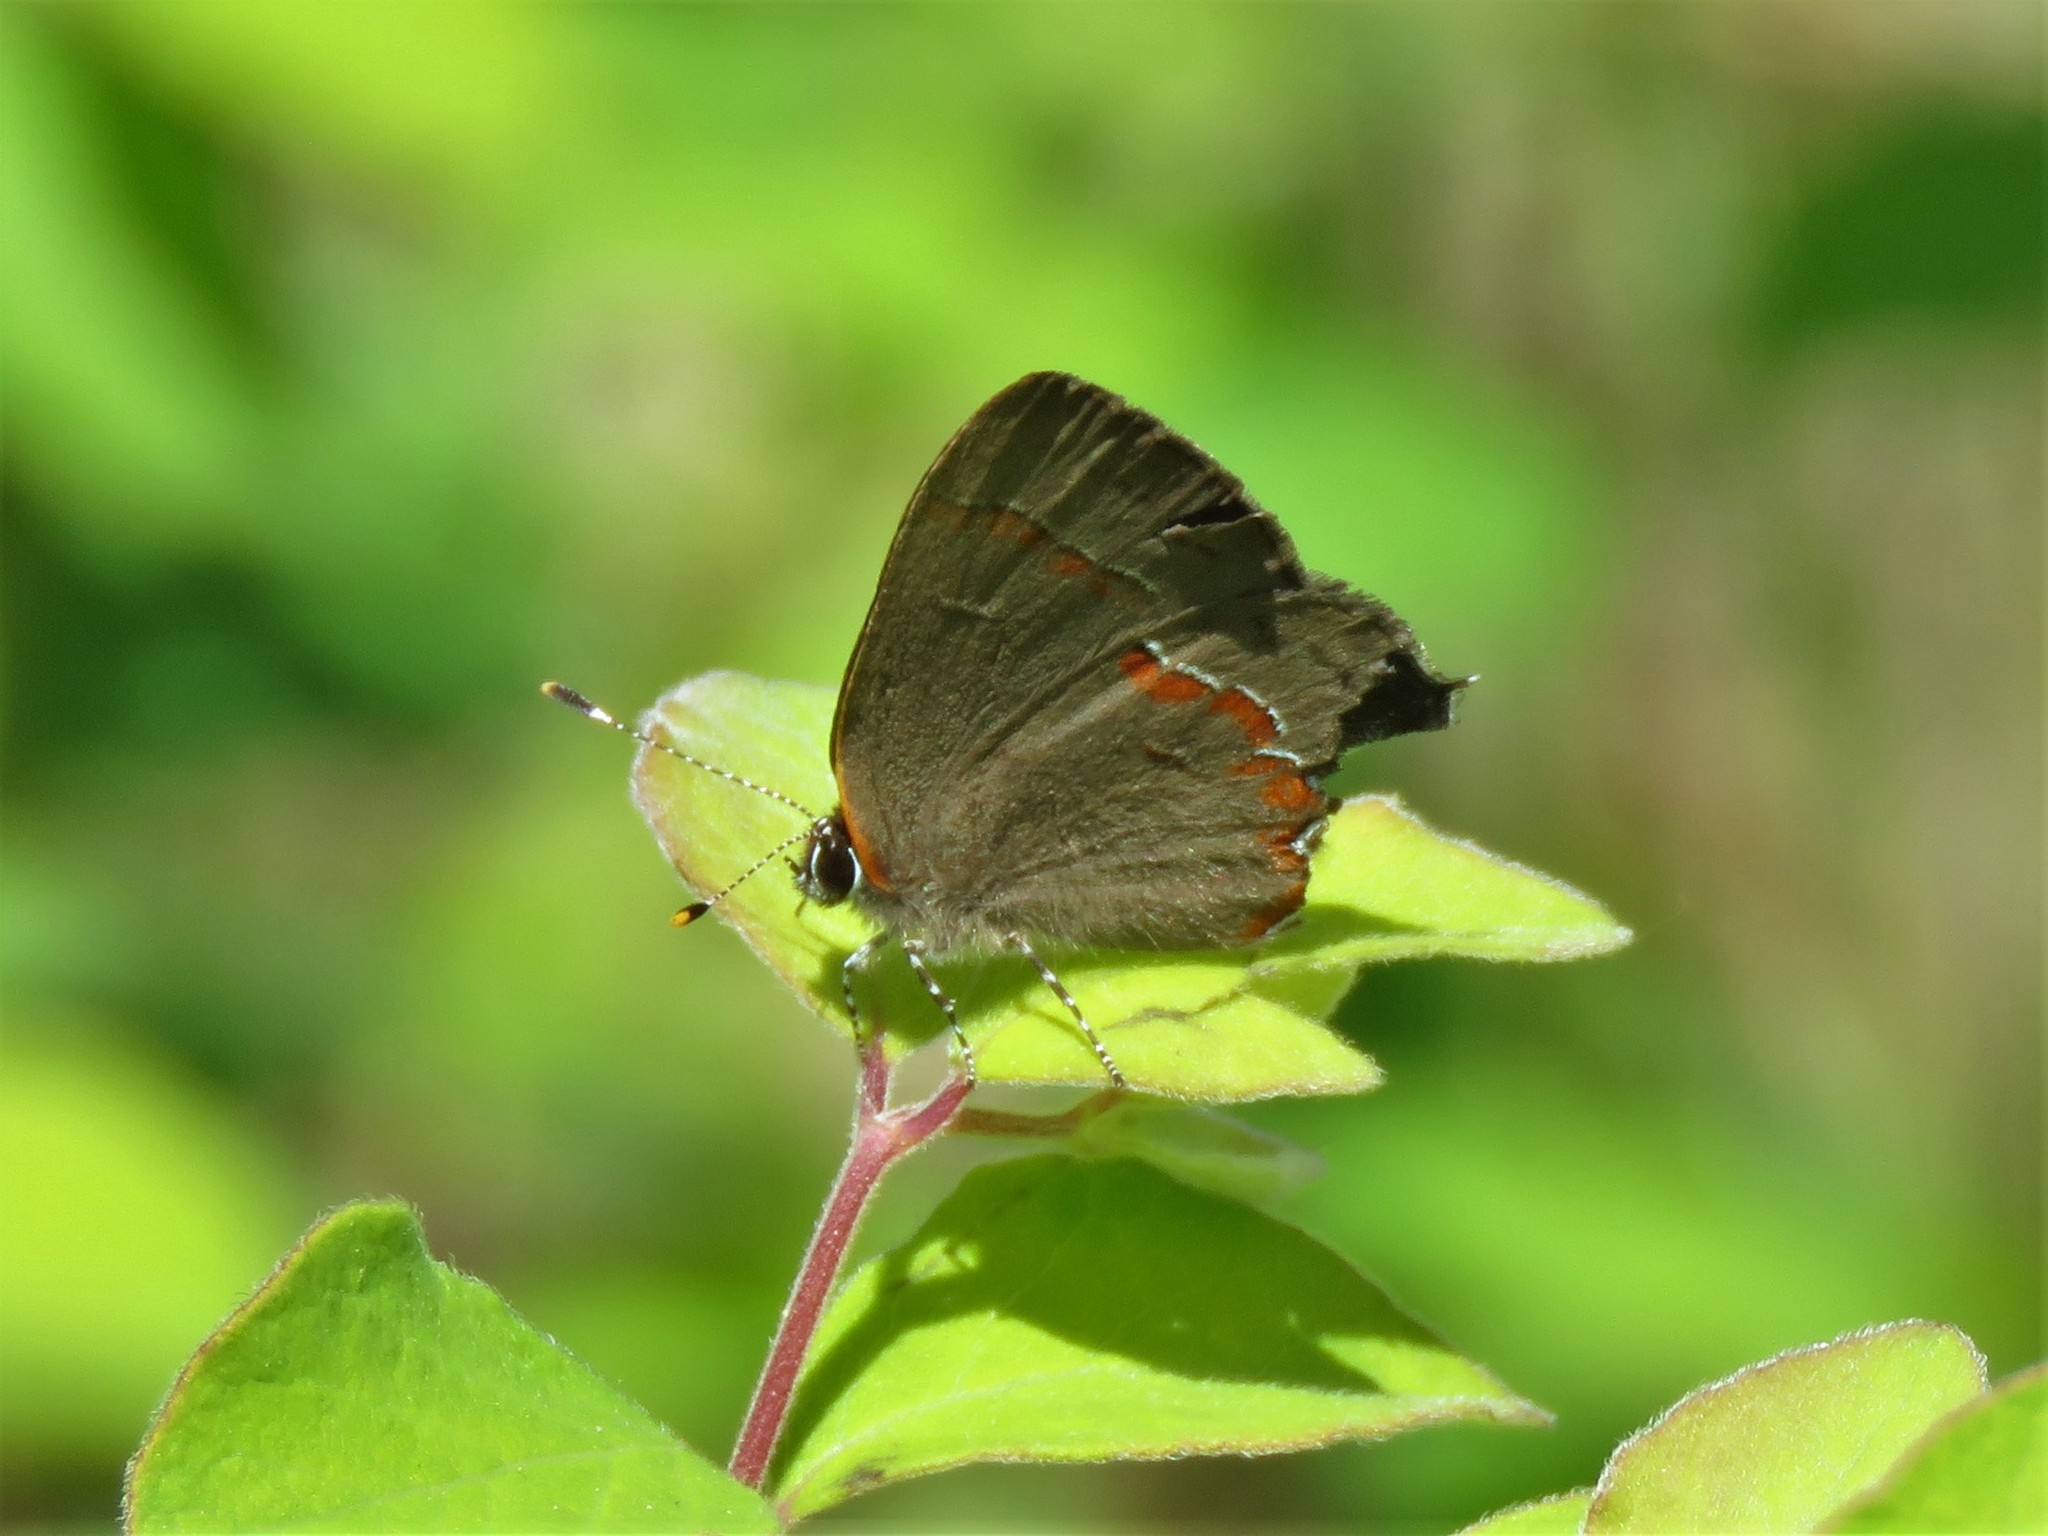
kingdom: Animalia
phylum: Arthropoda
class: Insecta
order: Lepidoptera
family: Lycaenidae
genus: Calycopis
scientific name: Calycopis cecrops
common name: Red-banded hairstreak
